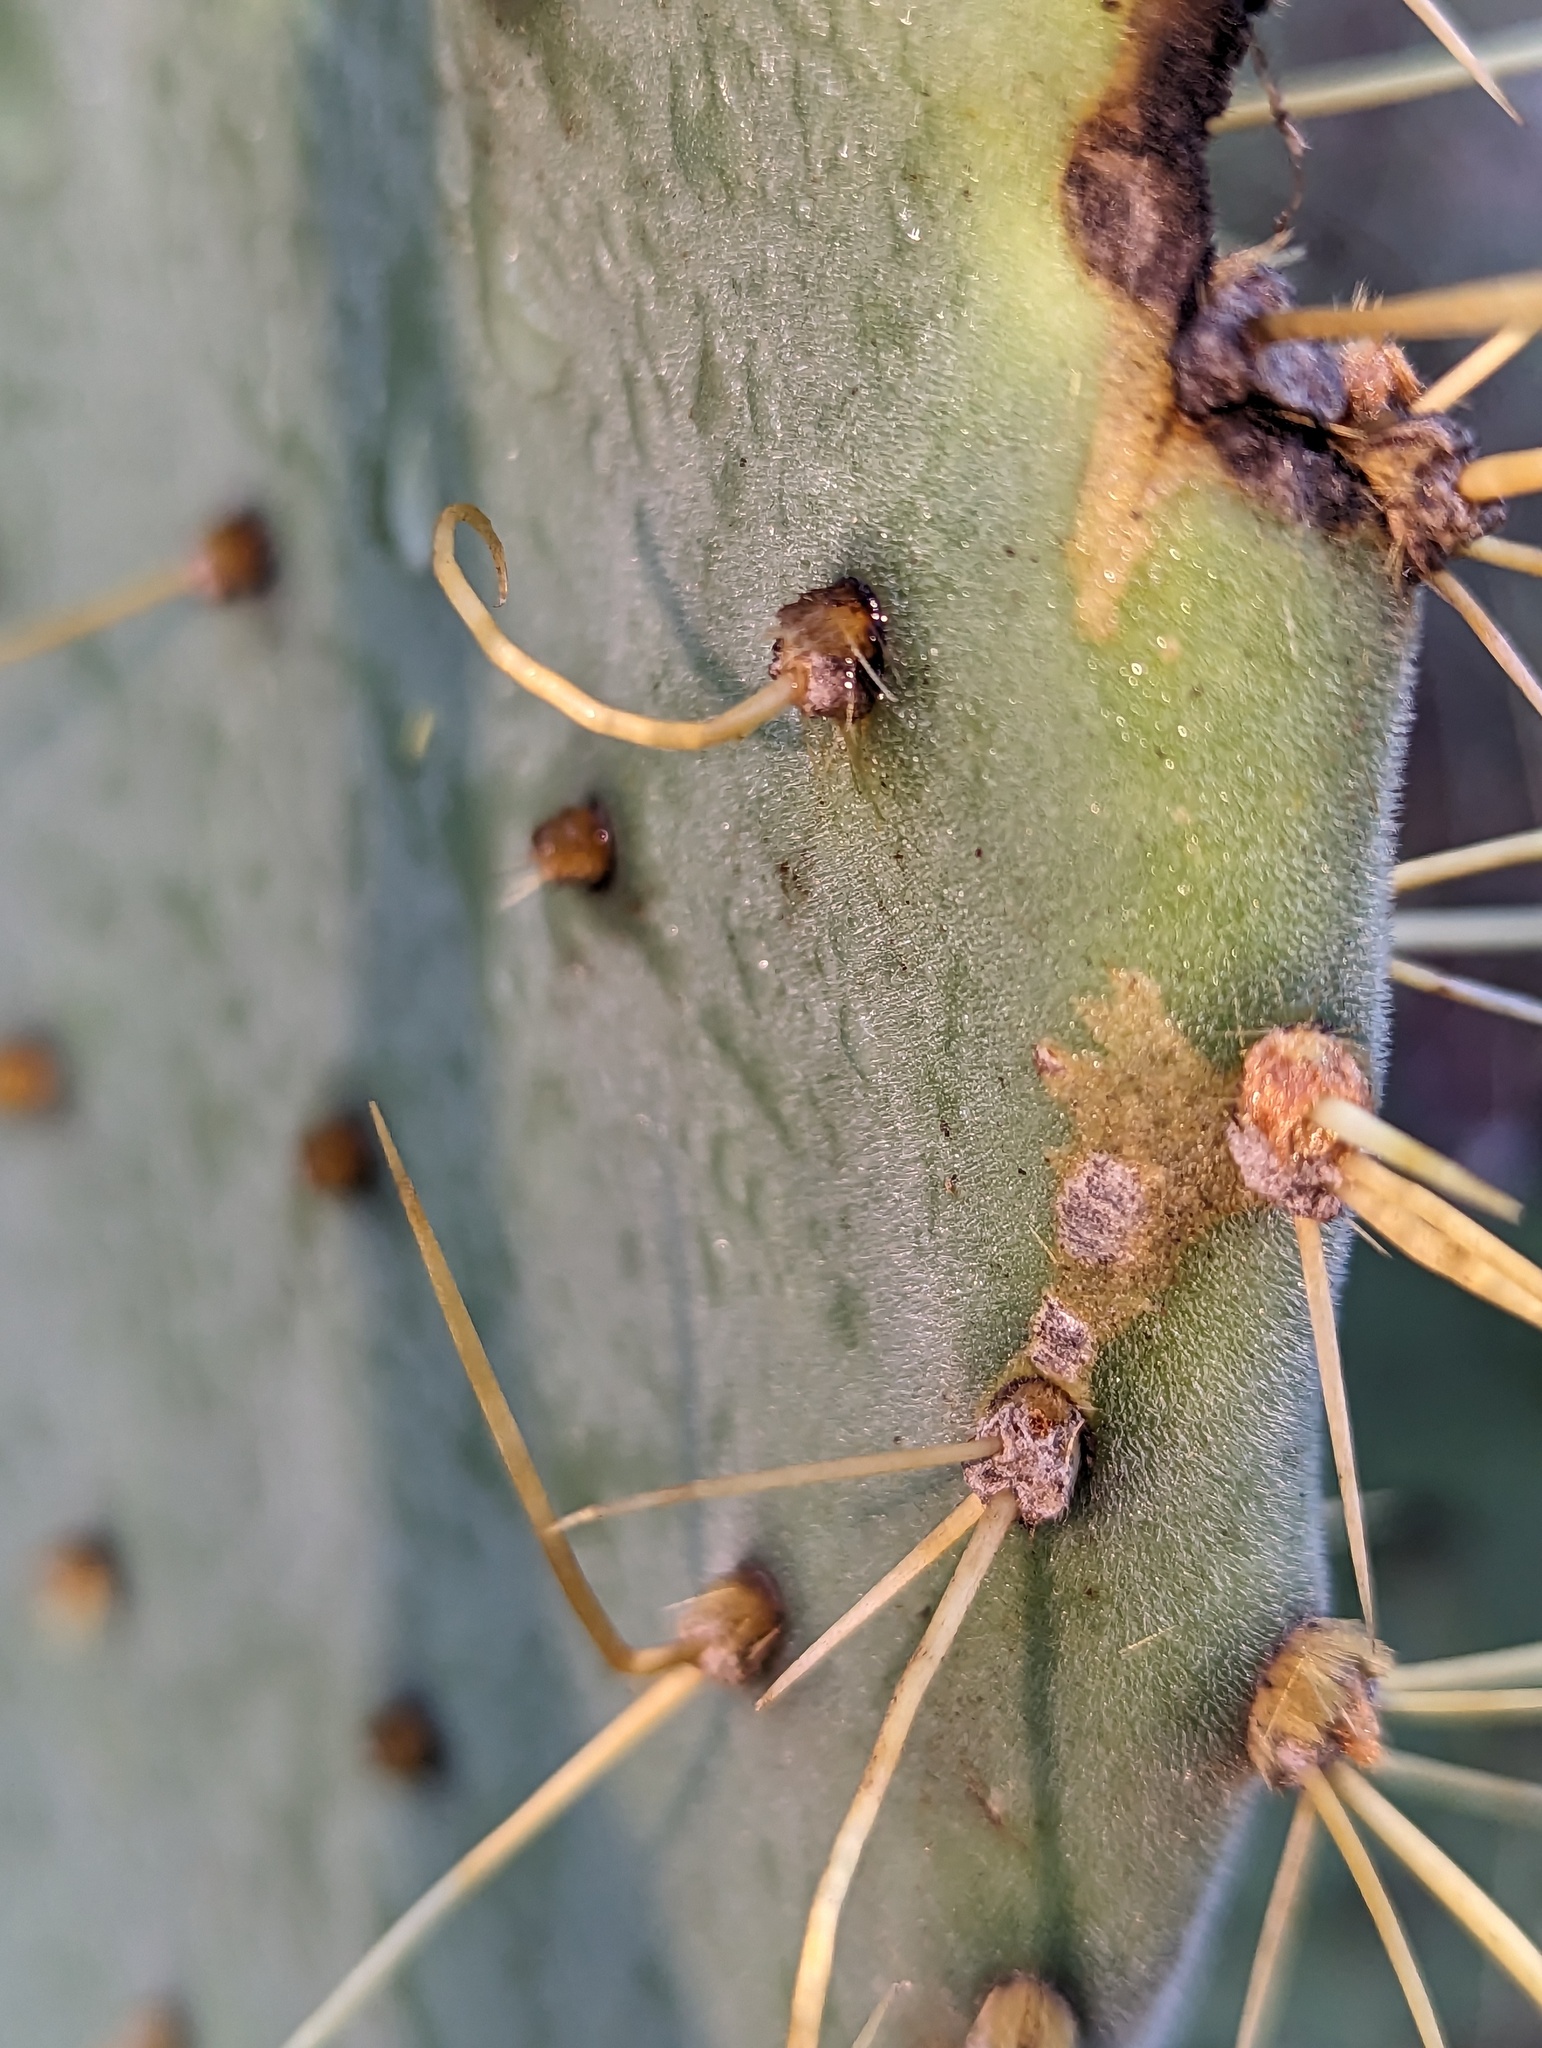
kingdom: Plantae
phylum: Tracheophyta
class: Magnoliopsida
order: Caryophyllales
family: Cactaceae
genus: Opuntia
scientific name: Opuntia caboensis
